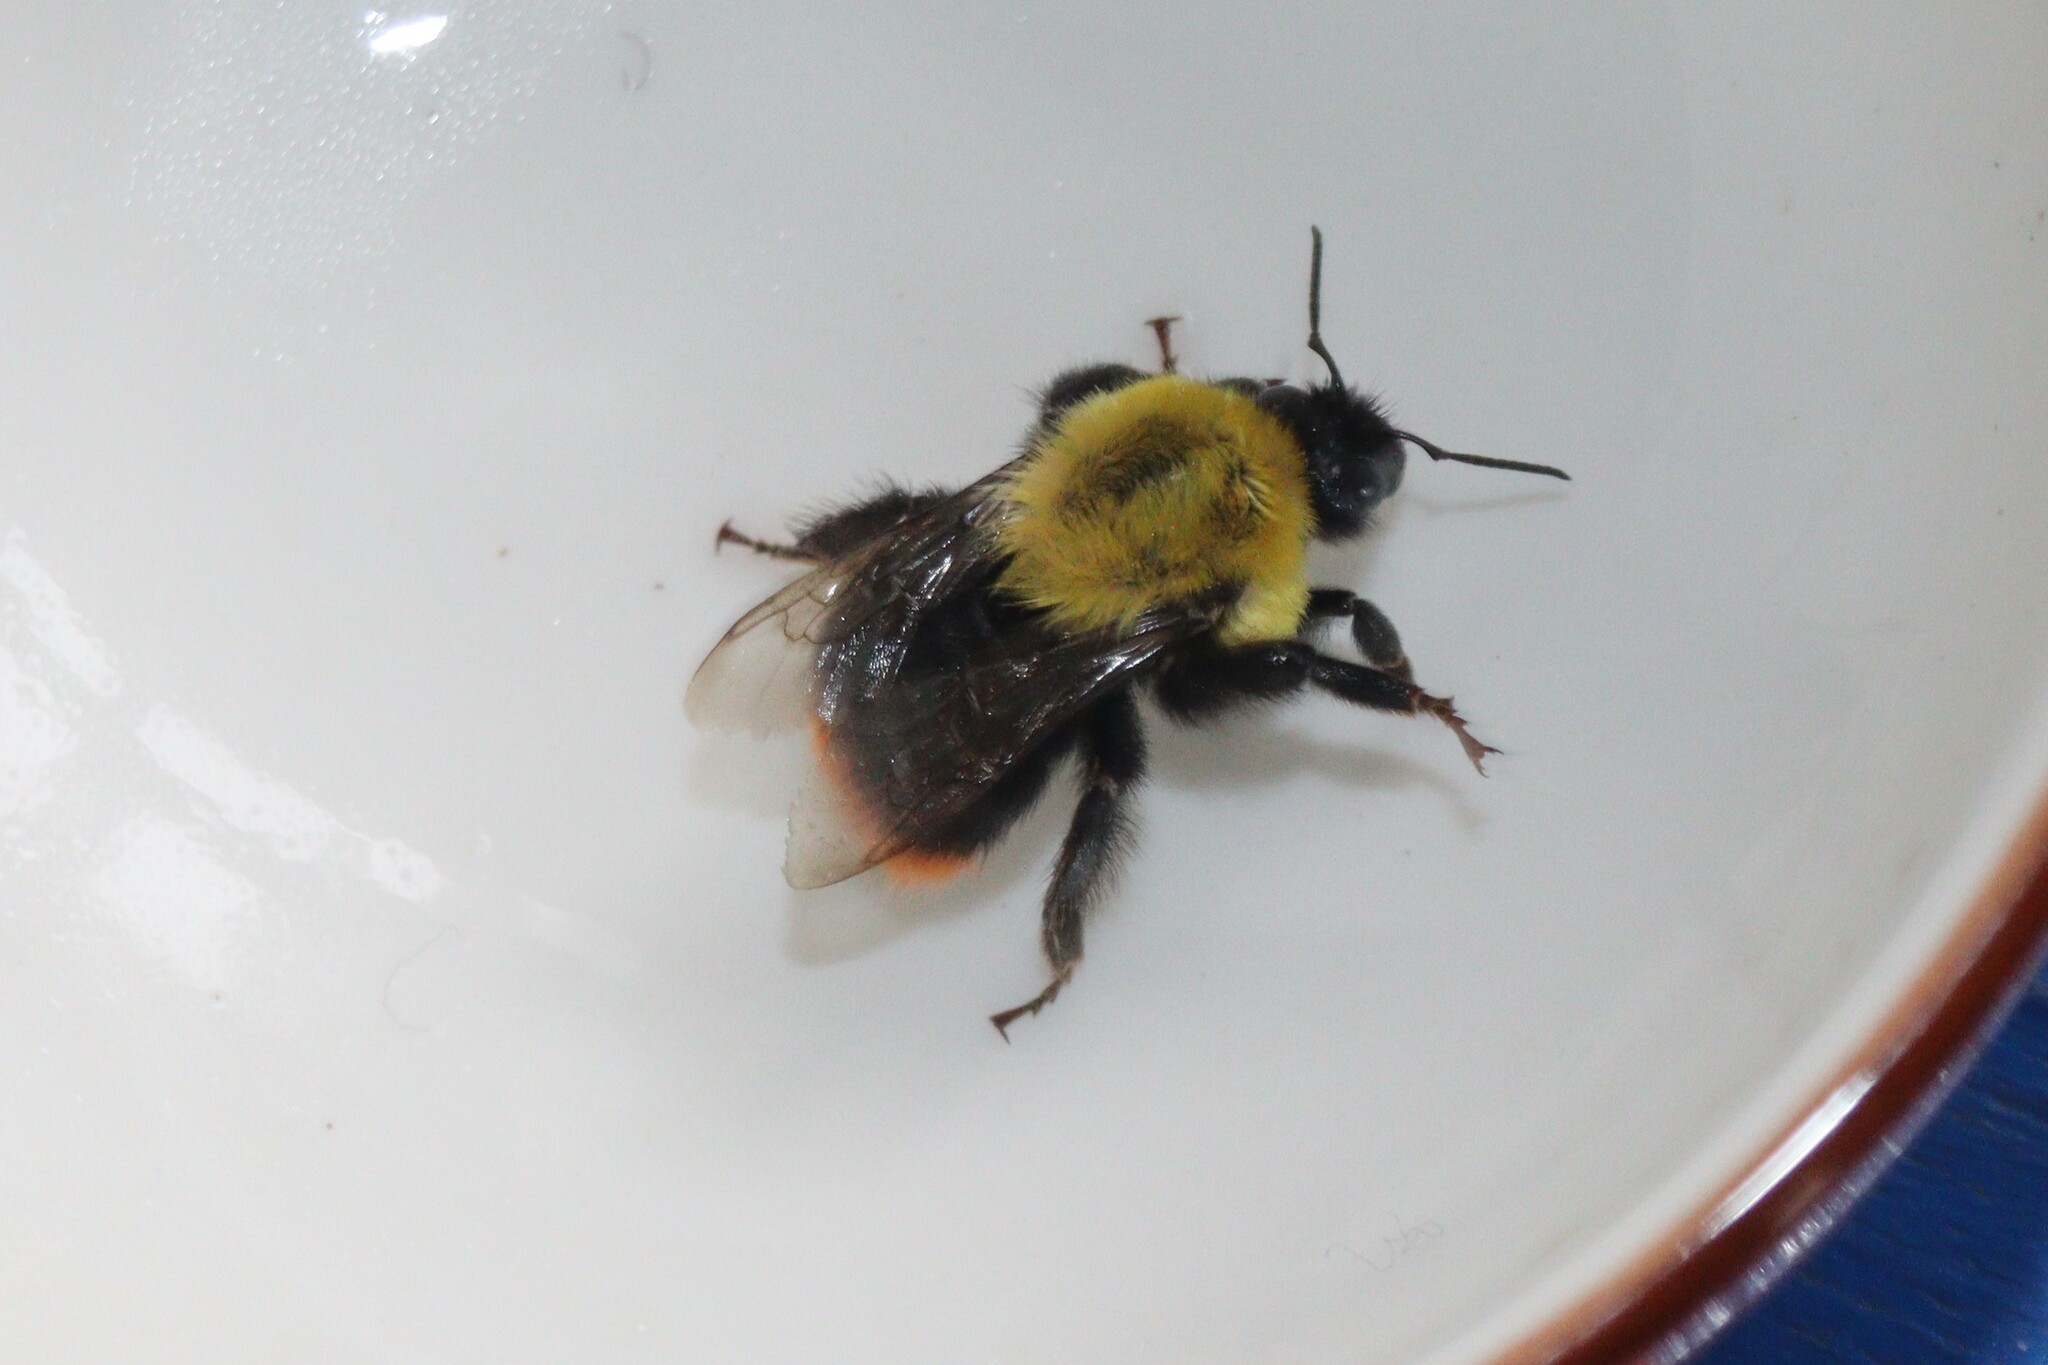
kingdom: Animalia
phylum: Arthropoda
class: Insecta
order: Hymenoptera
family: Apidae
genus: Bombus
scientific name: Bombus
